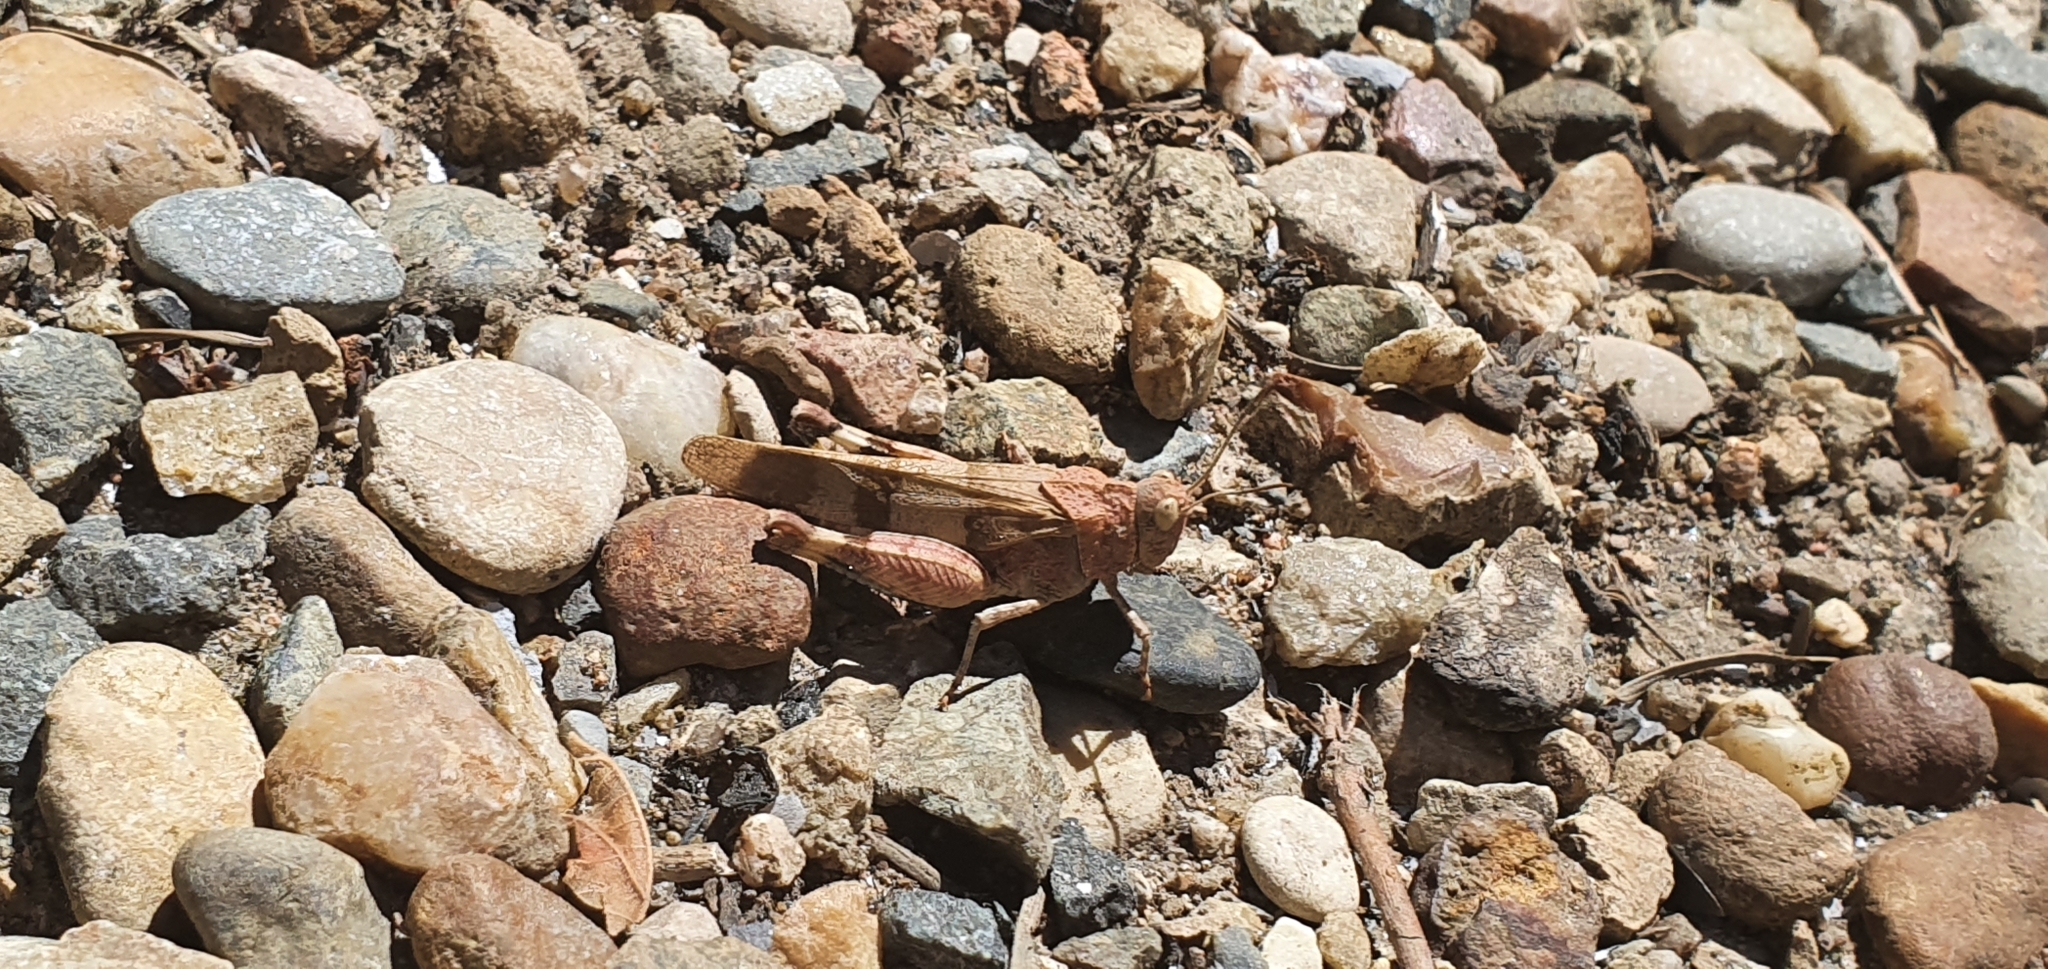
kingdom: Animalia
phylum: Arthropoda
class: Insecta
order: Orthoptera
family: Acrididae
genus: Oedipoda
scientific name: Oedipoda caerulescens
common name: Blue-winged grasshopper
